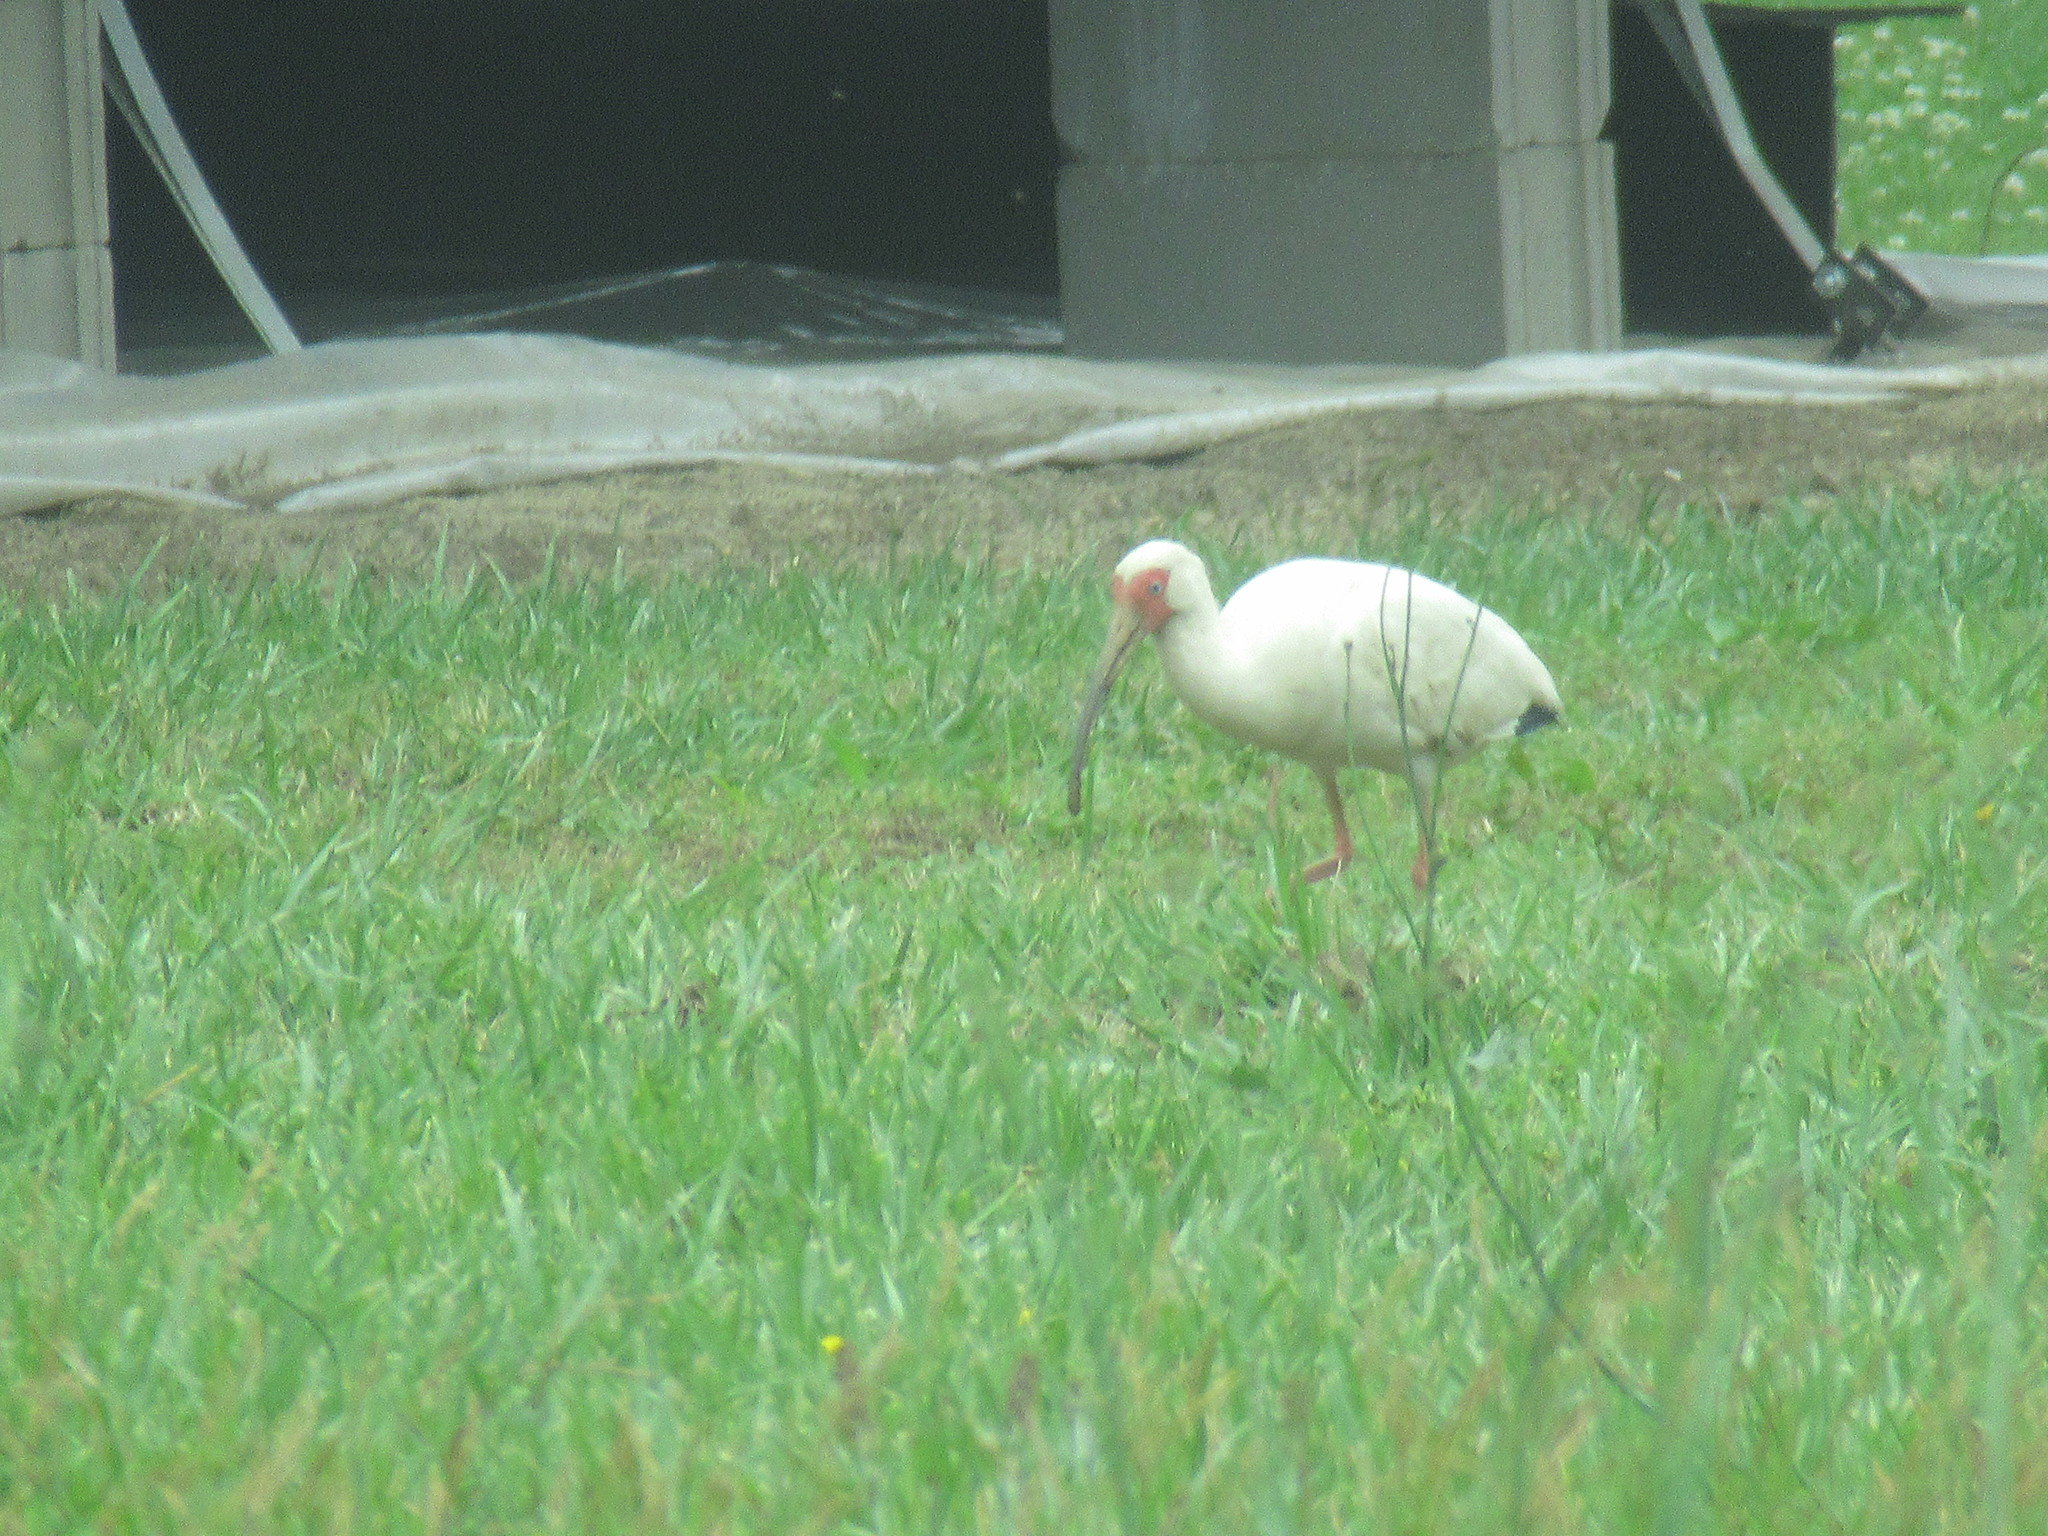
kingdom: Animalia
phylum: Chordata
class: Aves
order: Pelecaniformes
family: Threskiornithidae
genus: Eudocimus
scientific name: Eudocimus albus
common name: White ibis
